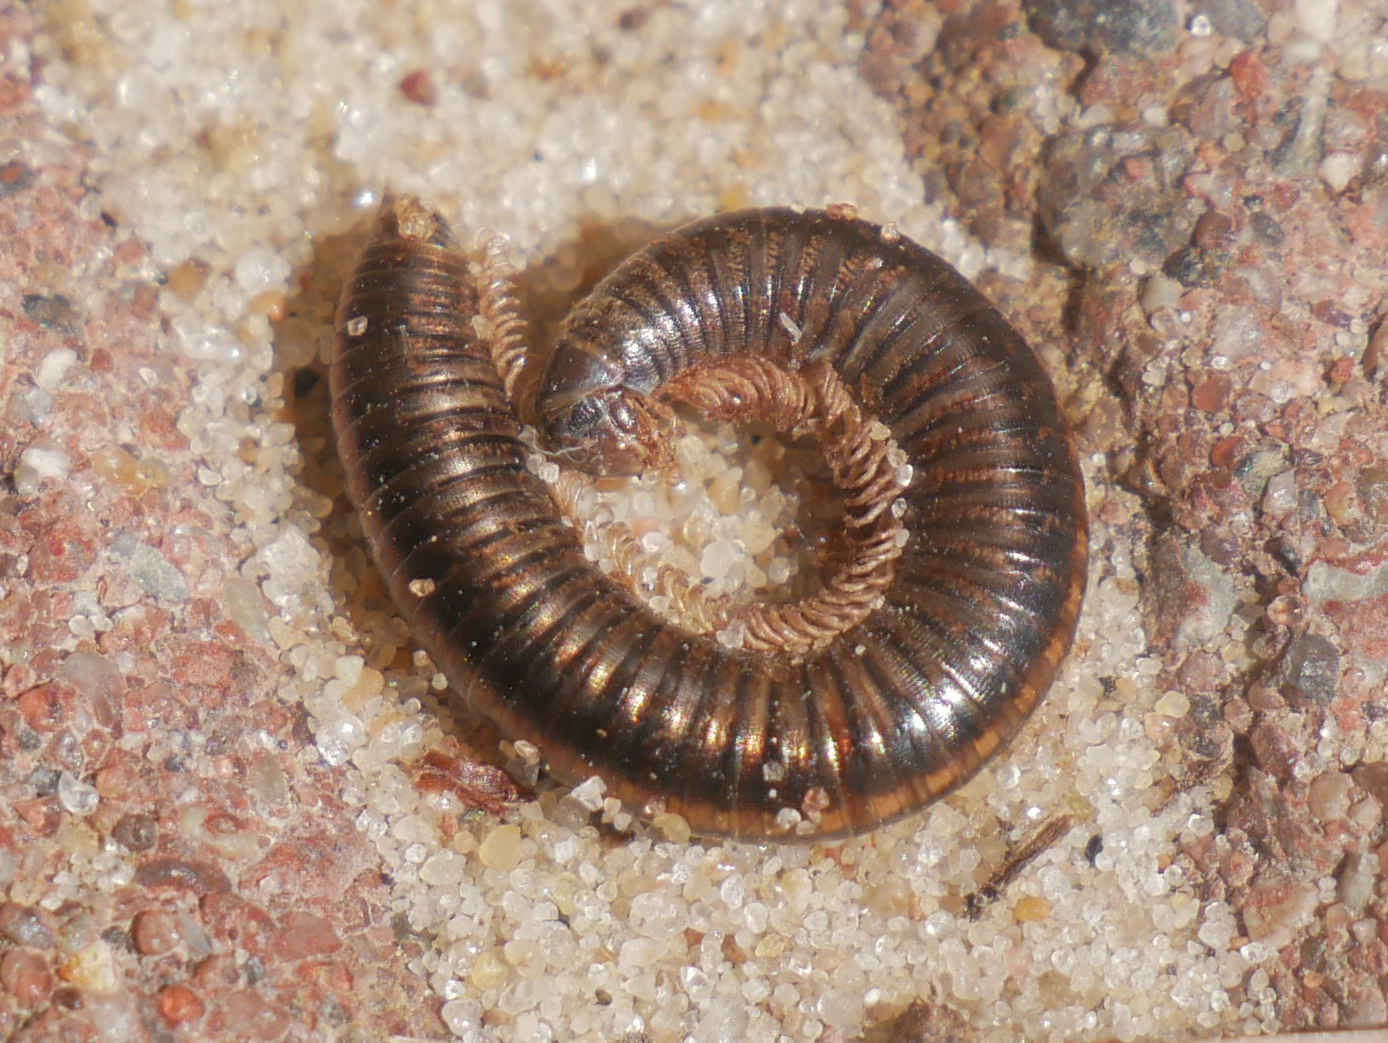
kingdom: Animalia
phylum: Arthropoda
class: Diplopoda
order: Julida
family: Julidae
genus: Ommatoiulus
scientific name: Ommatoiulus sabulosus
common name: Striped millipede
